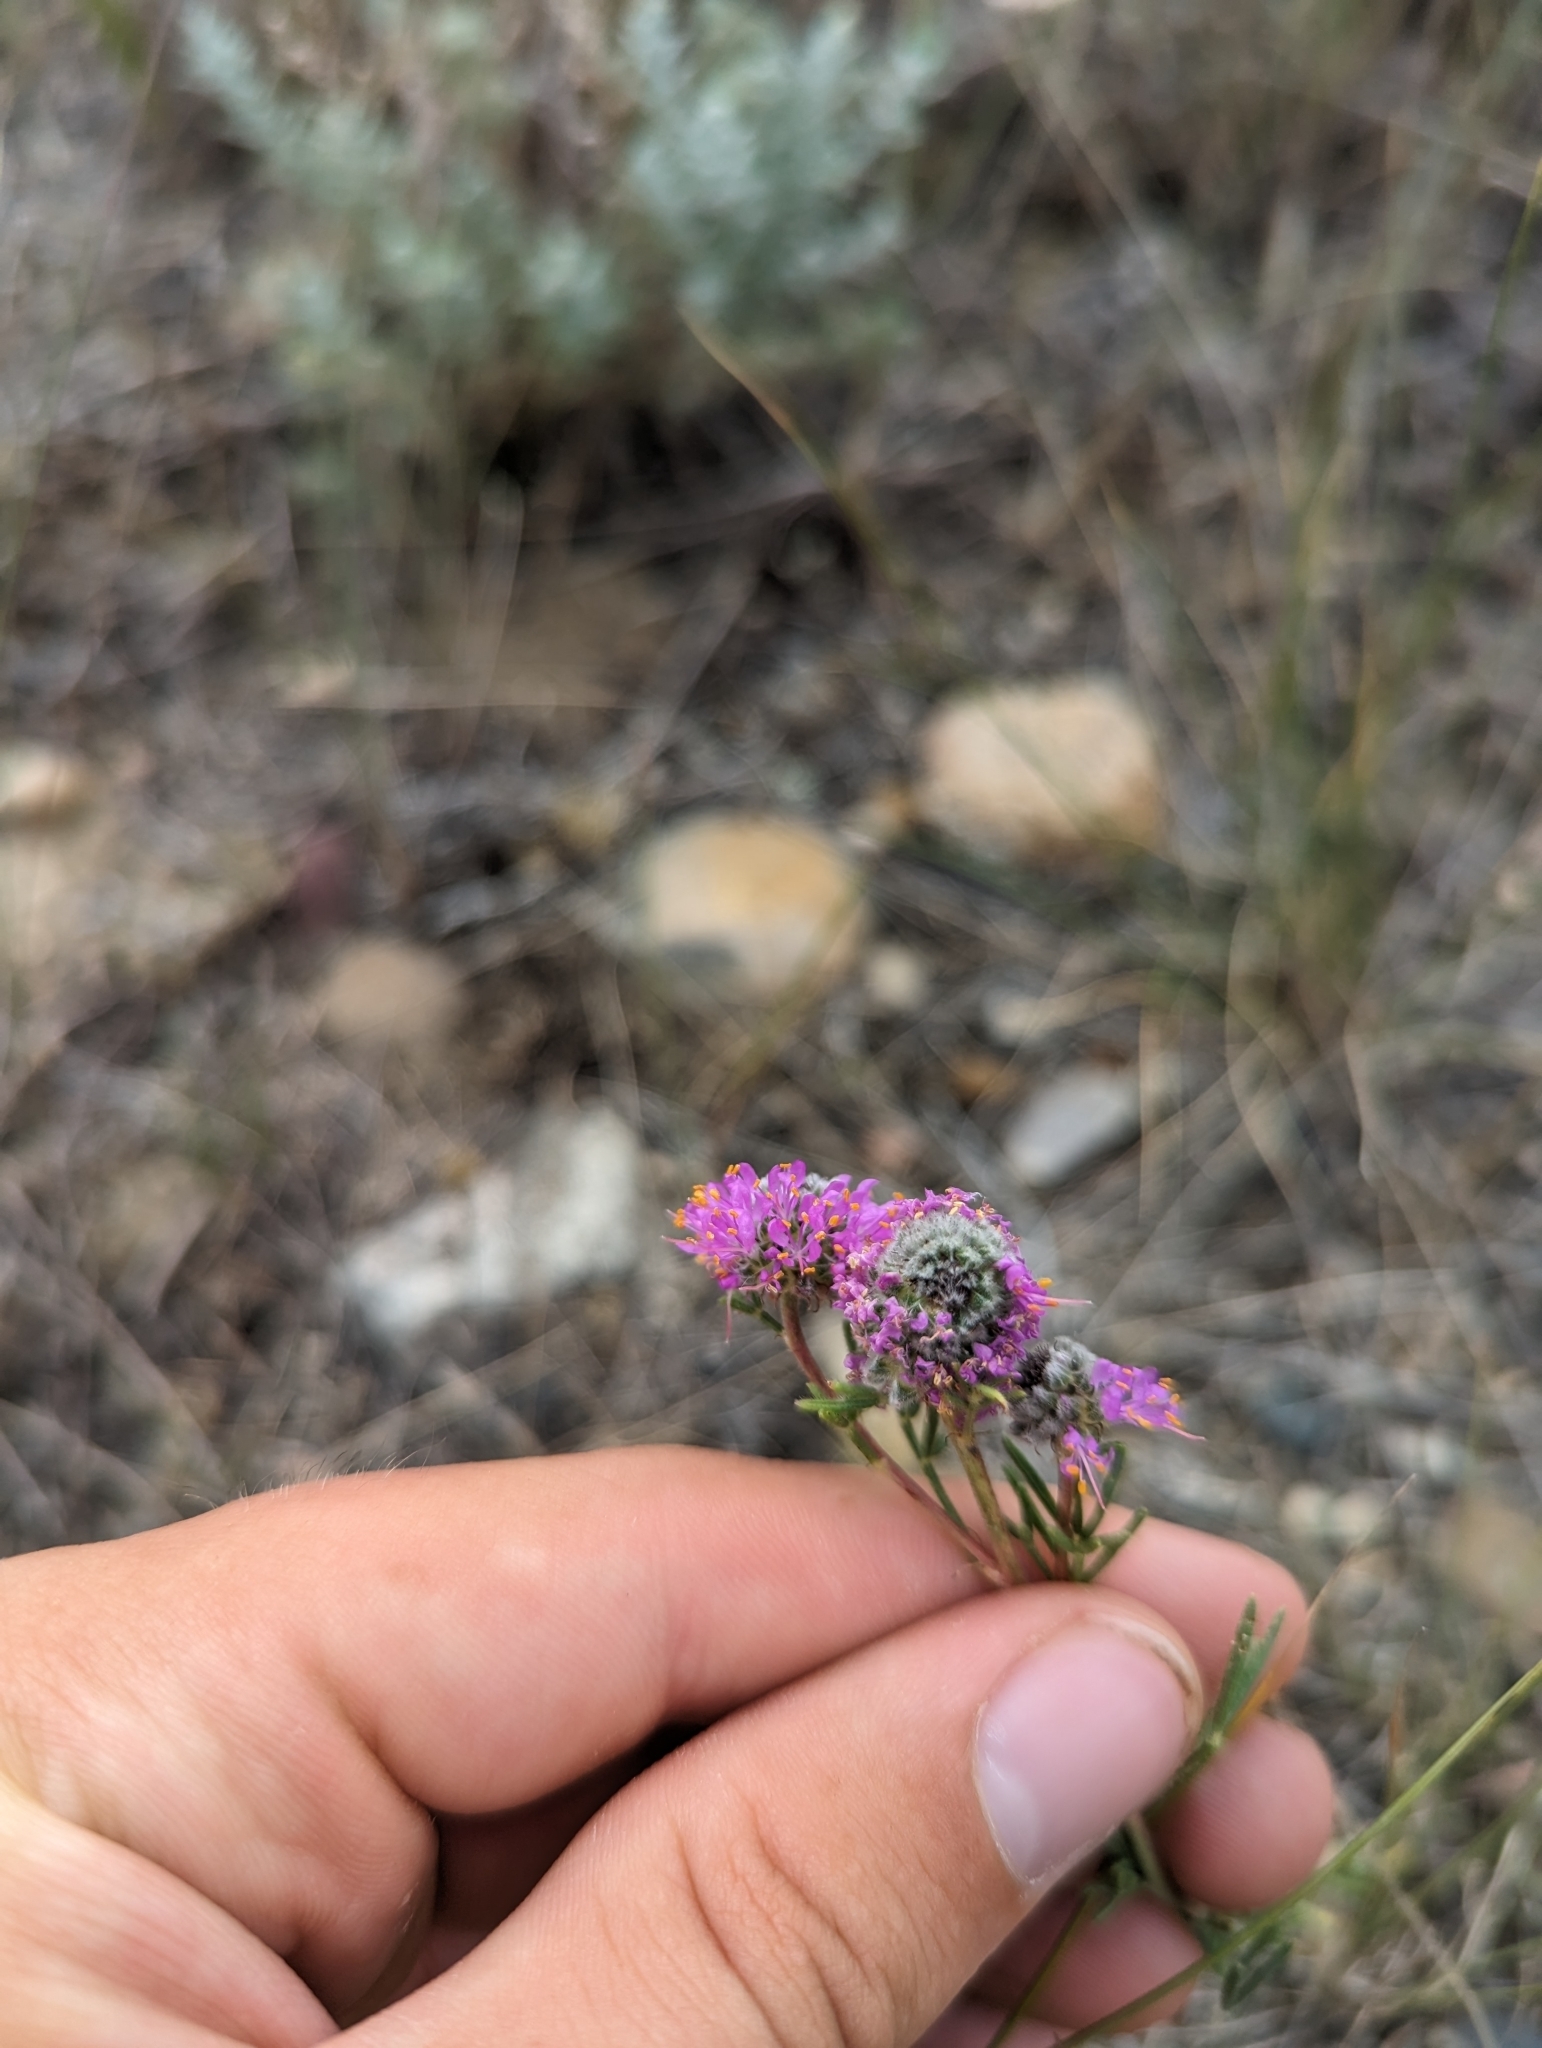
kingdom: Plantae
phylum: Tracheophyta
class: Magnoliopsida
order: Fabales
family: Fabaceae
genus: Dalea
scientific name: Dalea purpurea
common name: Purple prairie-clover
